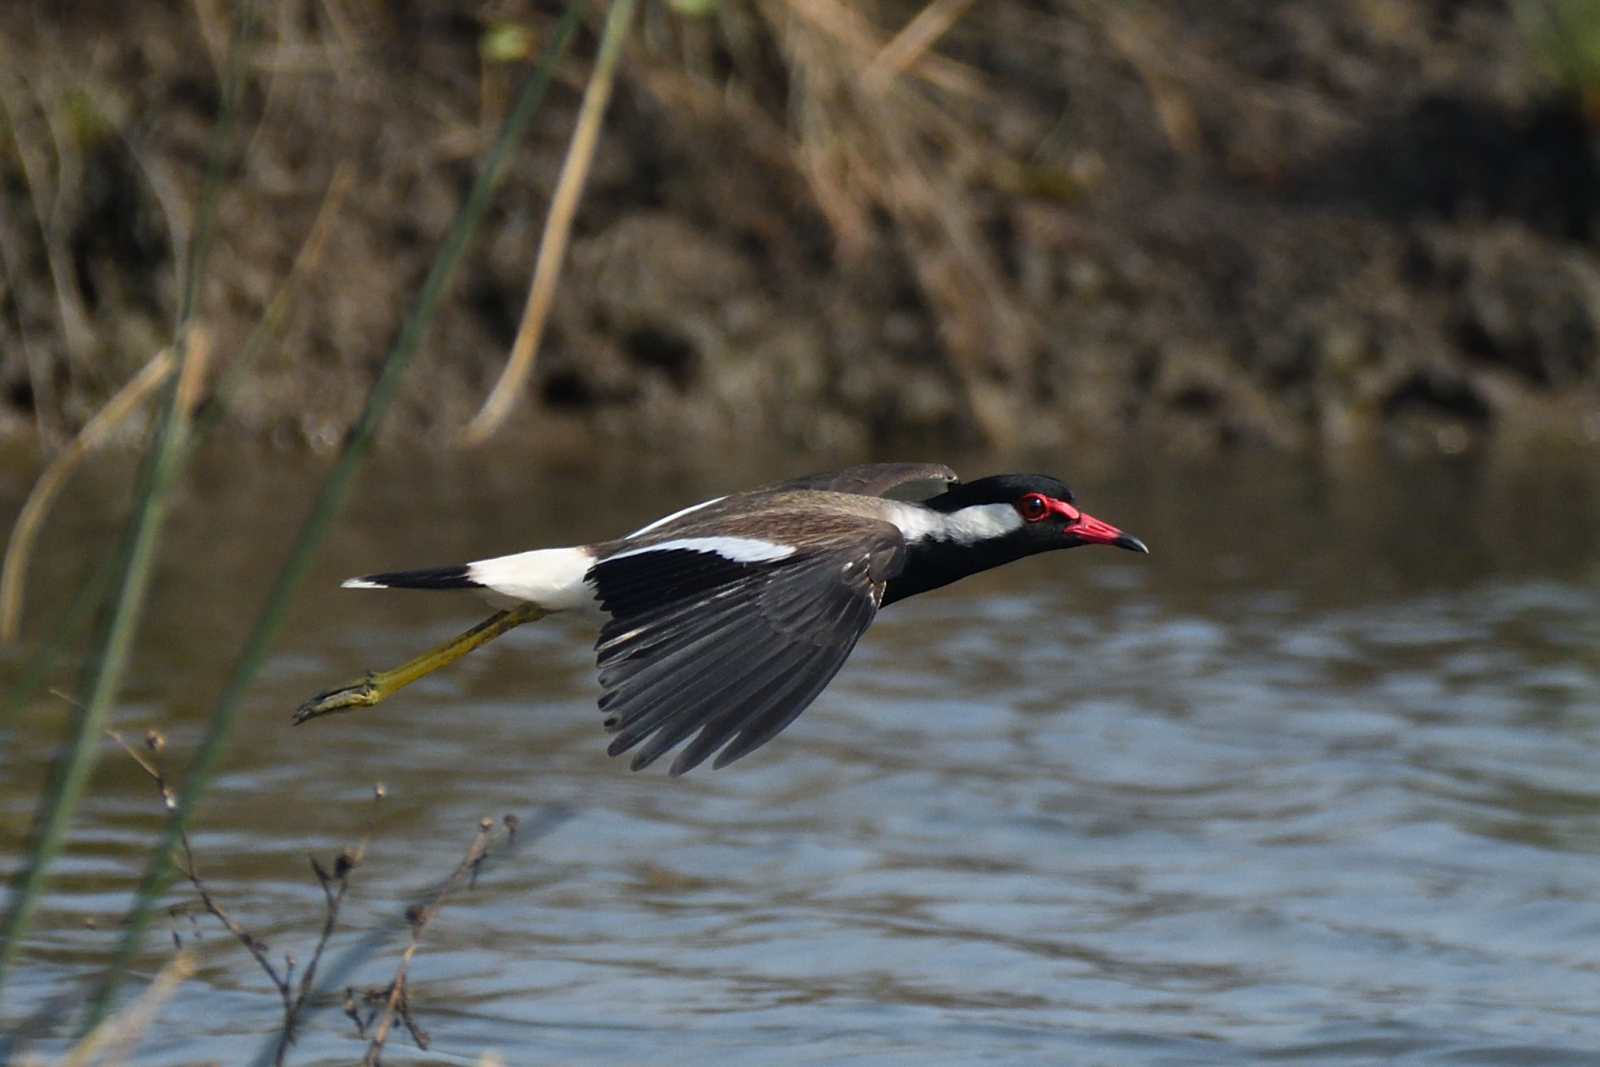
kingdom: Animalia
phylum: Chordata
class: Aves
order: Charadriiformes
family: Charadriidae
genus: Vanellus
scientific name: Vanellus indicus
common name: Red-wattled lapwing
